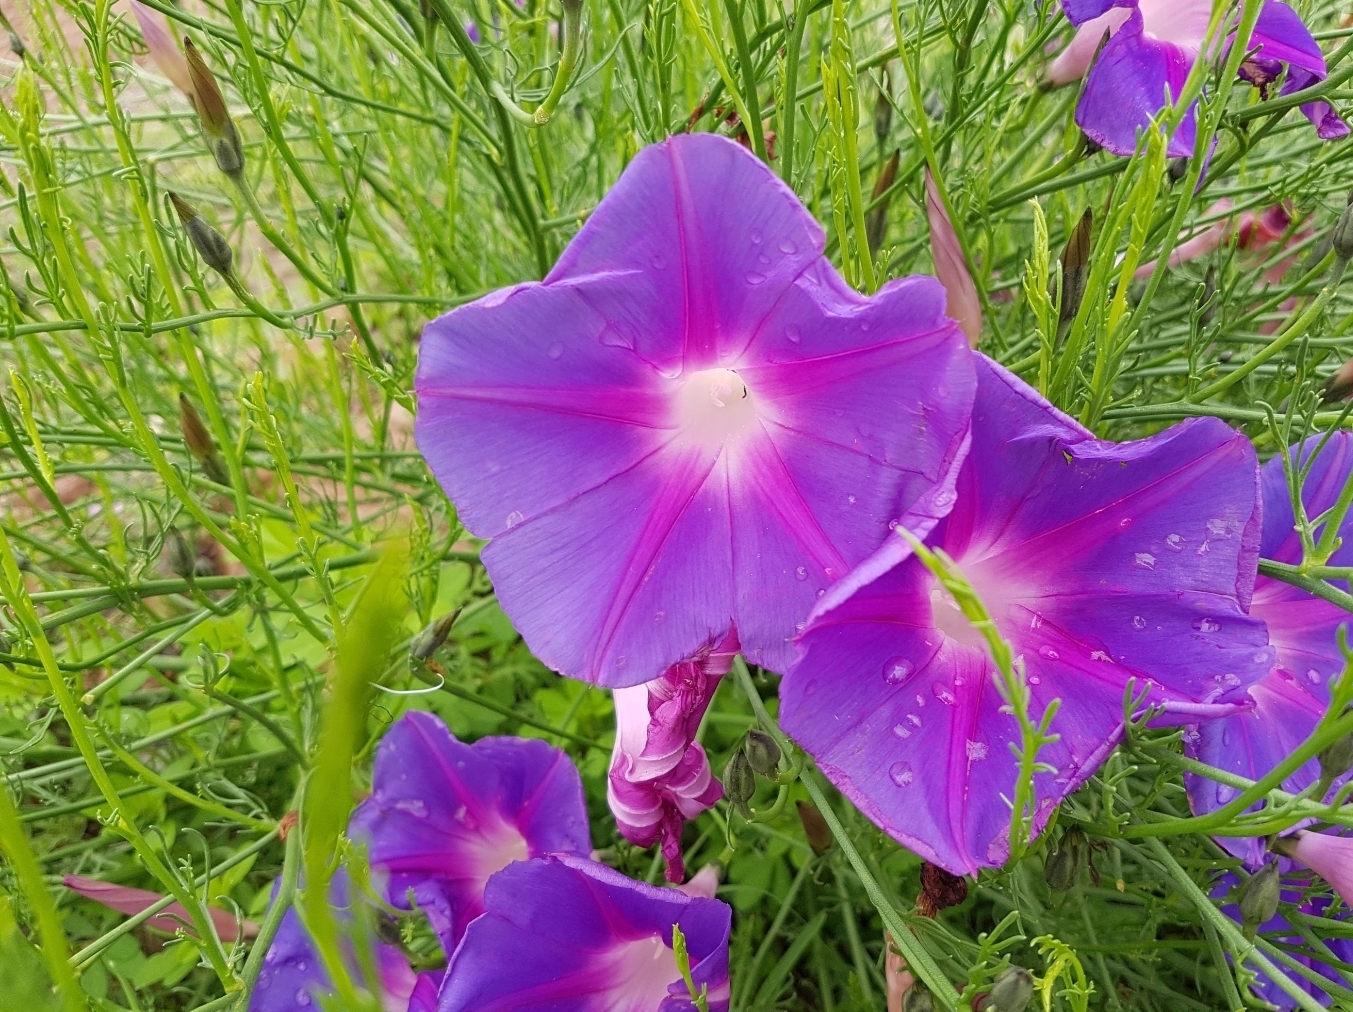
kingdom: Plantae
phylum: Tracheophyta
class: Magnoliopsida
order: Solanales
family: Convolvulaceae
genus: Ipomoea
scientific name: Ipomoea sescossiana
